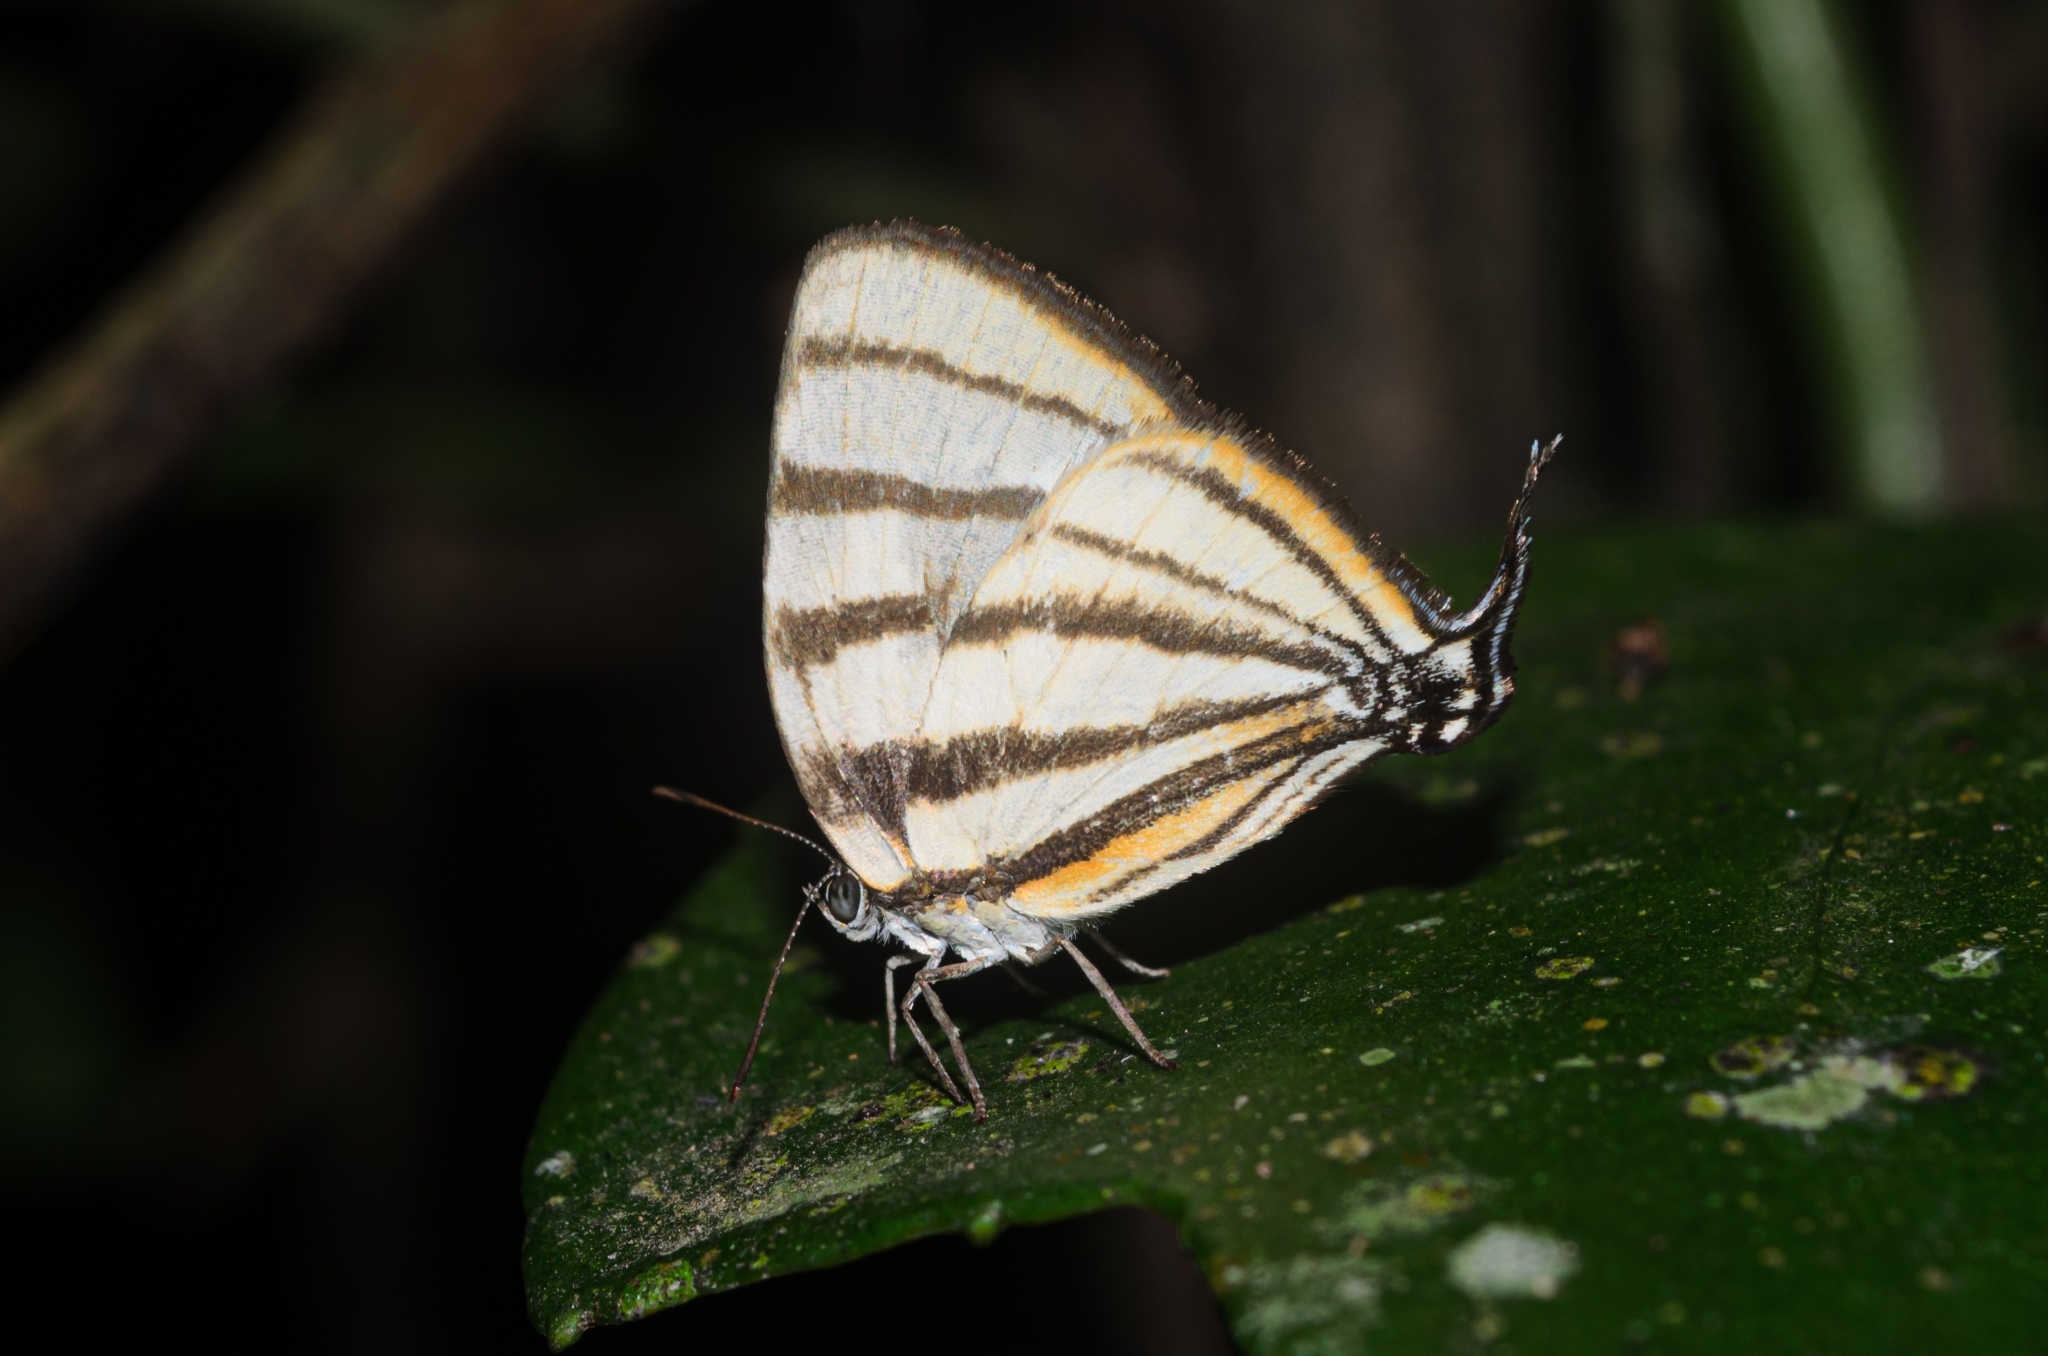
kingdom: Animalia
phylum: Arthropoda
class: Insecta
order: Lepidoptera
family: Lycaenidae
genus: Arawacus
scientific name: Arawacus separata
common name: Separated stripestreak
